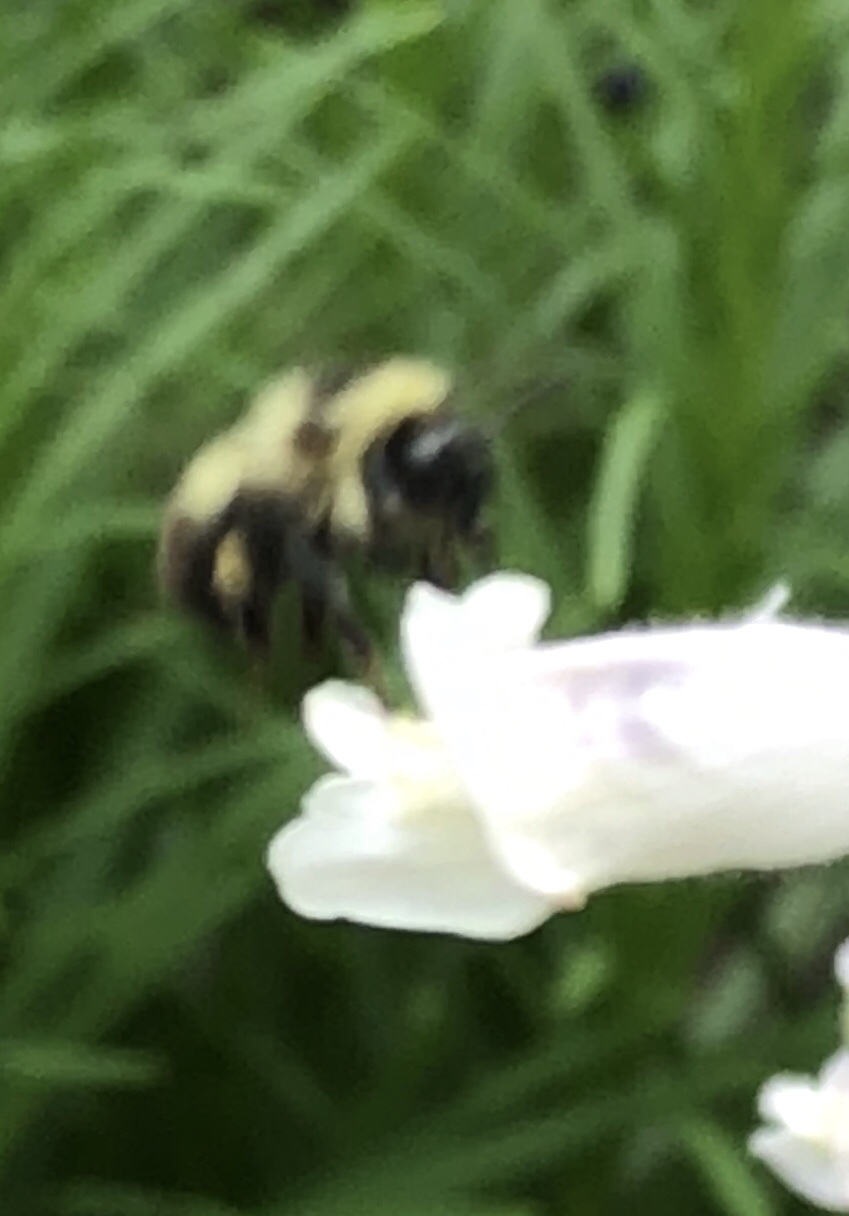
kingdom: Animalia
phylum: Arthropoda
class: Insecta
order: Hymenoptera
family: Apidae
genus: Bombus
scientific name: Bombus rufocinctus
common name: Red-belted bumble bee
